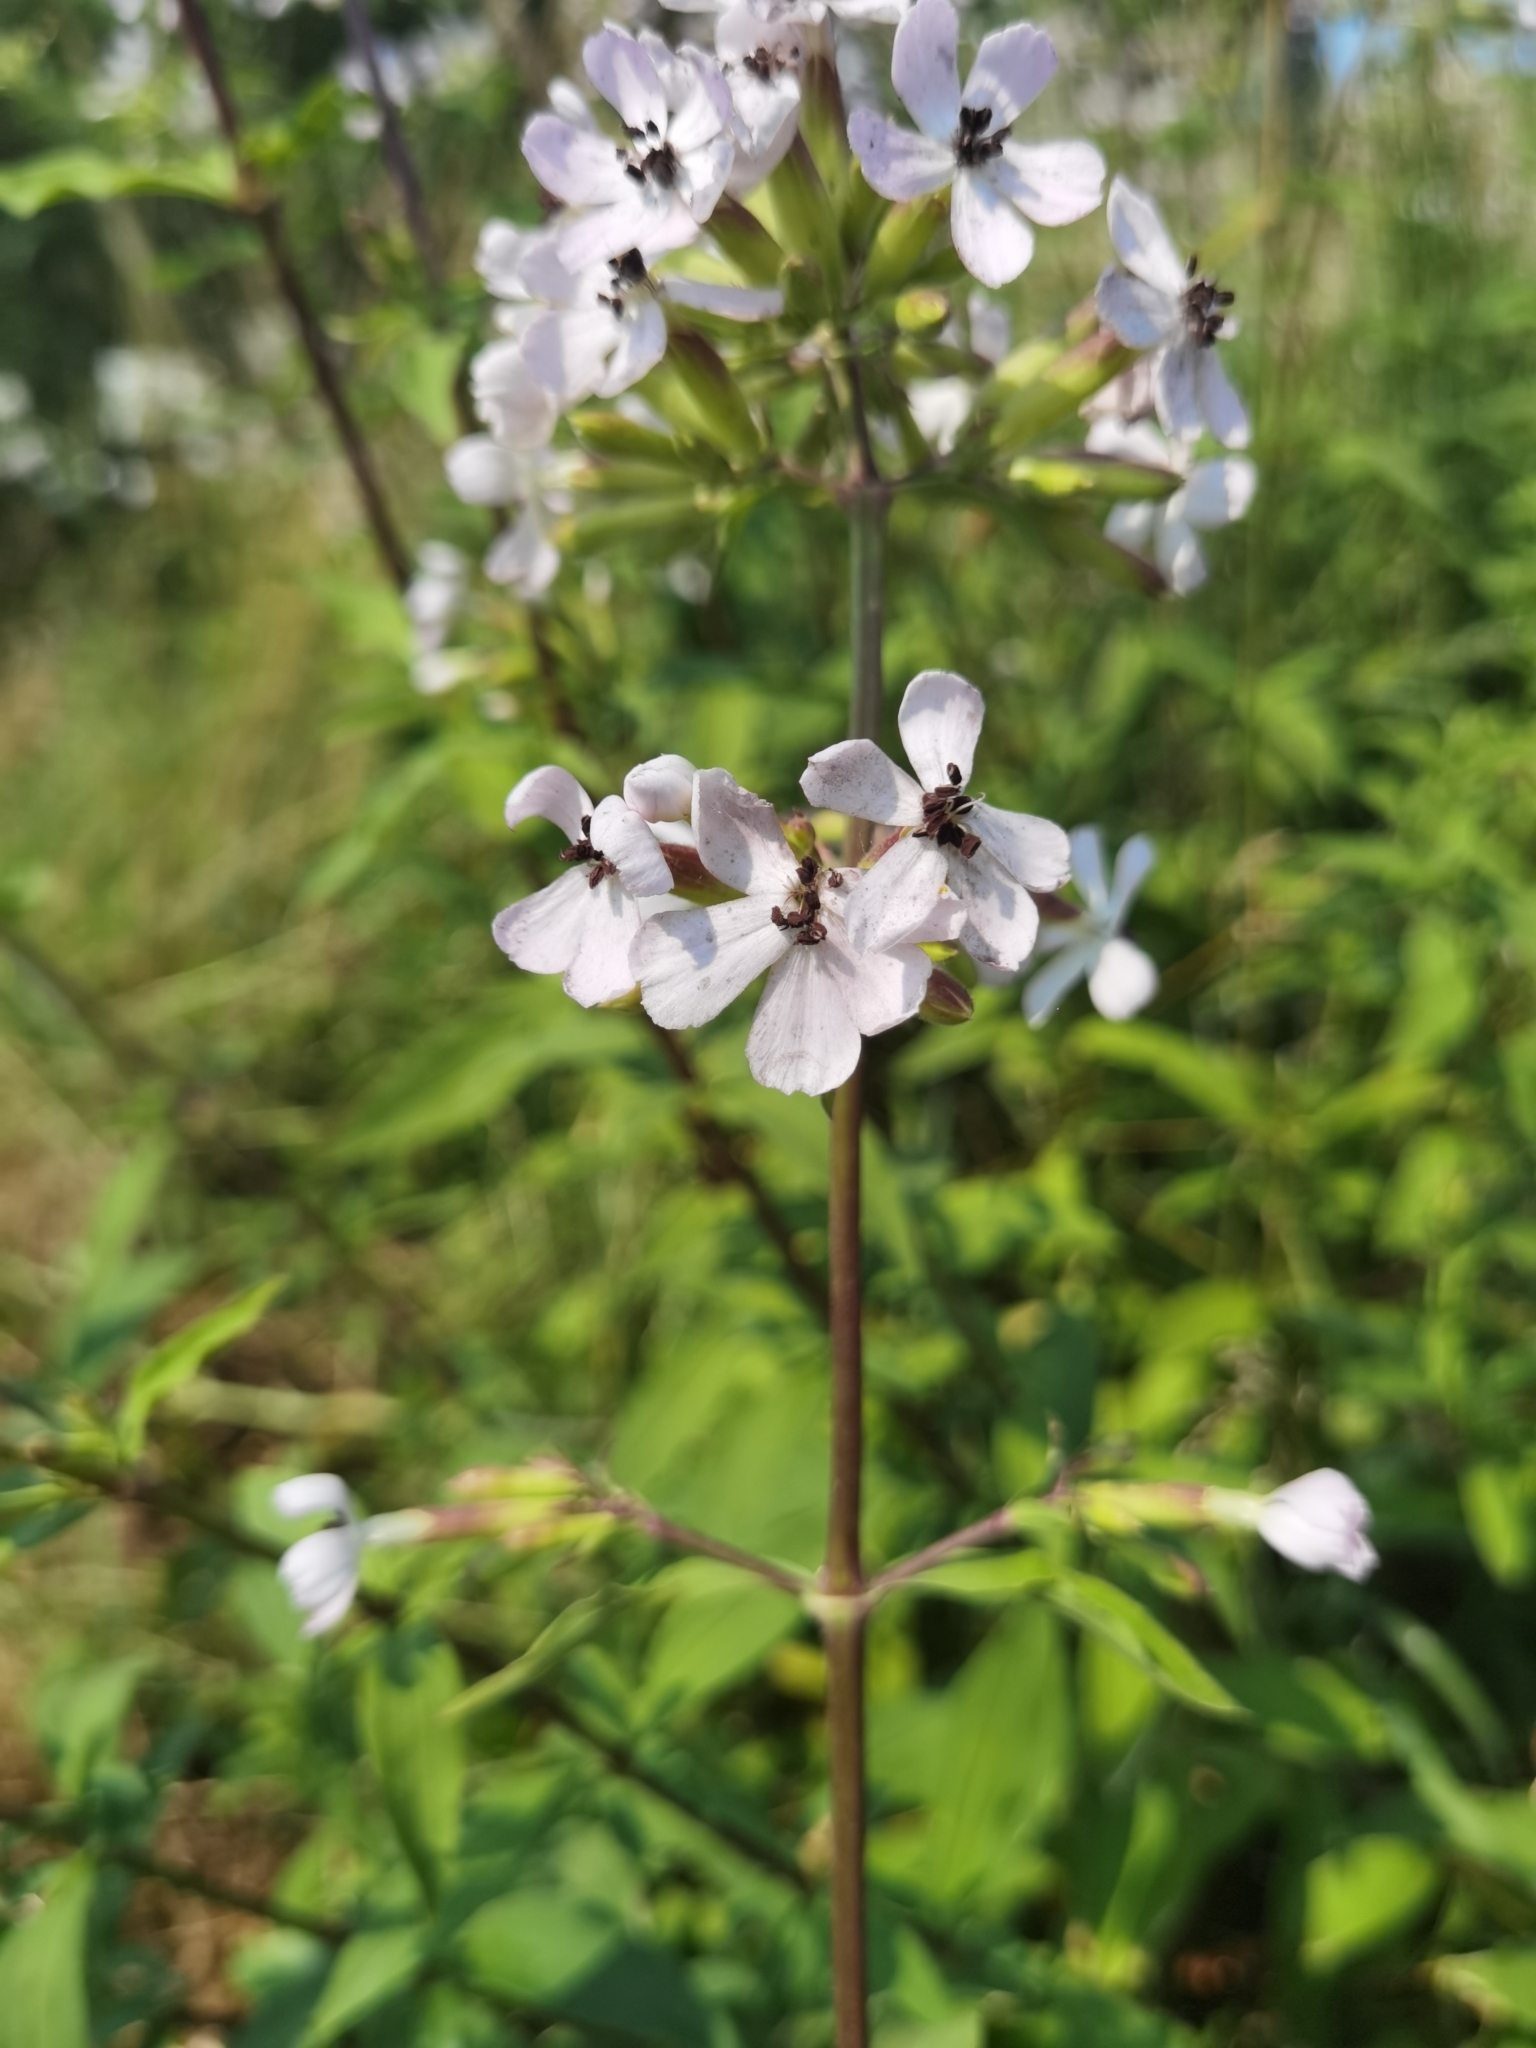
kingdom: Plantae
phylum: Tracheophyta
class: Magnoliopsida
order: Caryophyllales
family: Caryophyllaceae
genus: Saponaria
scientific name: Saponaria officinalis
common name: Soapwort
